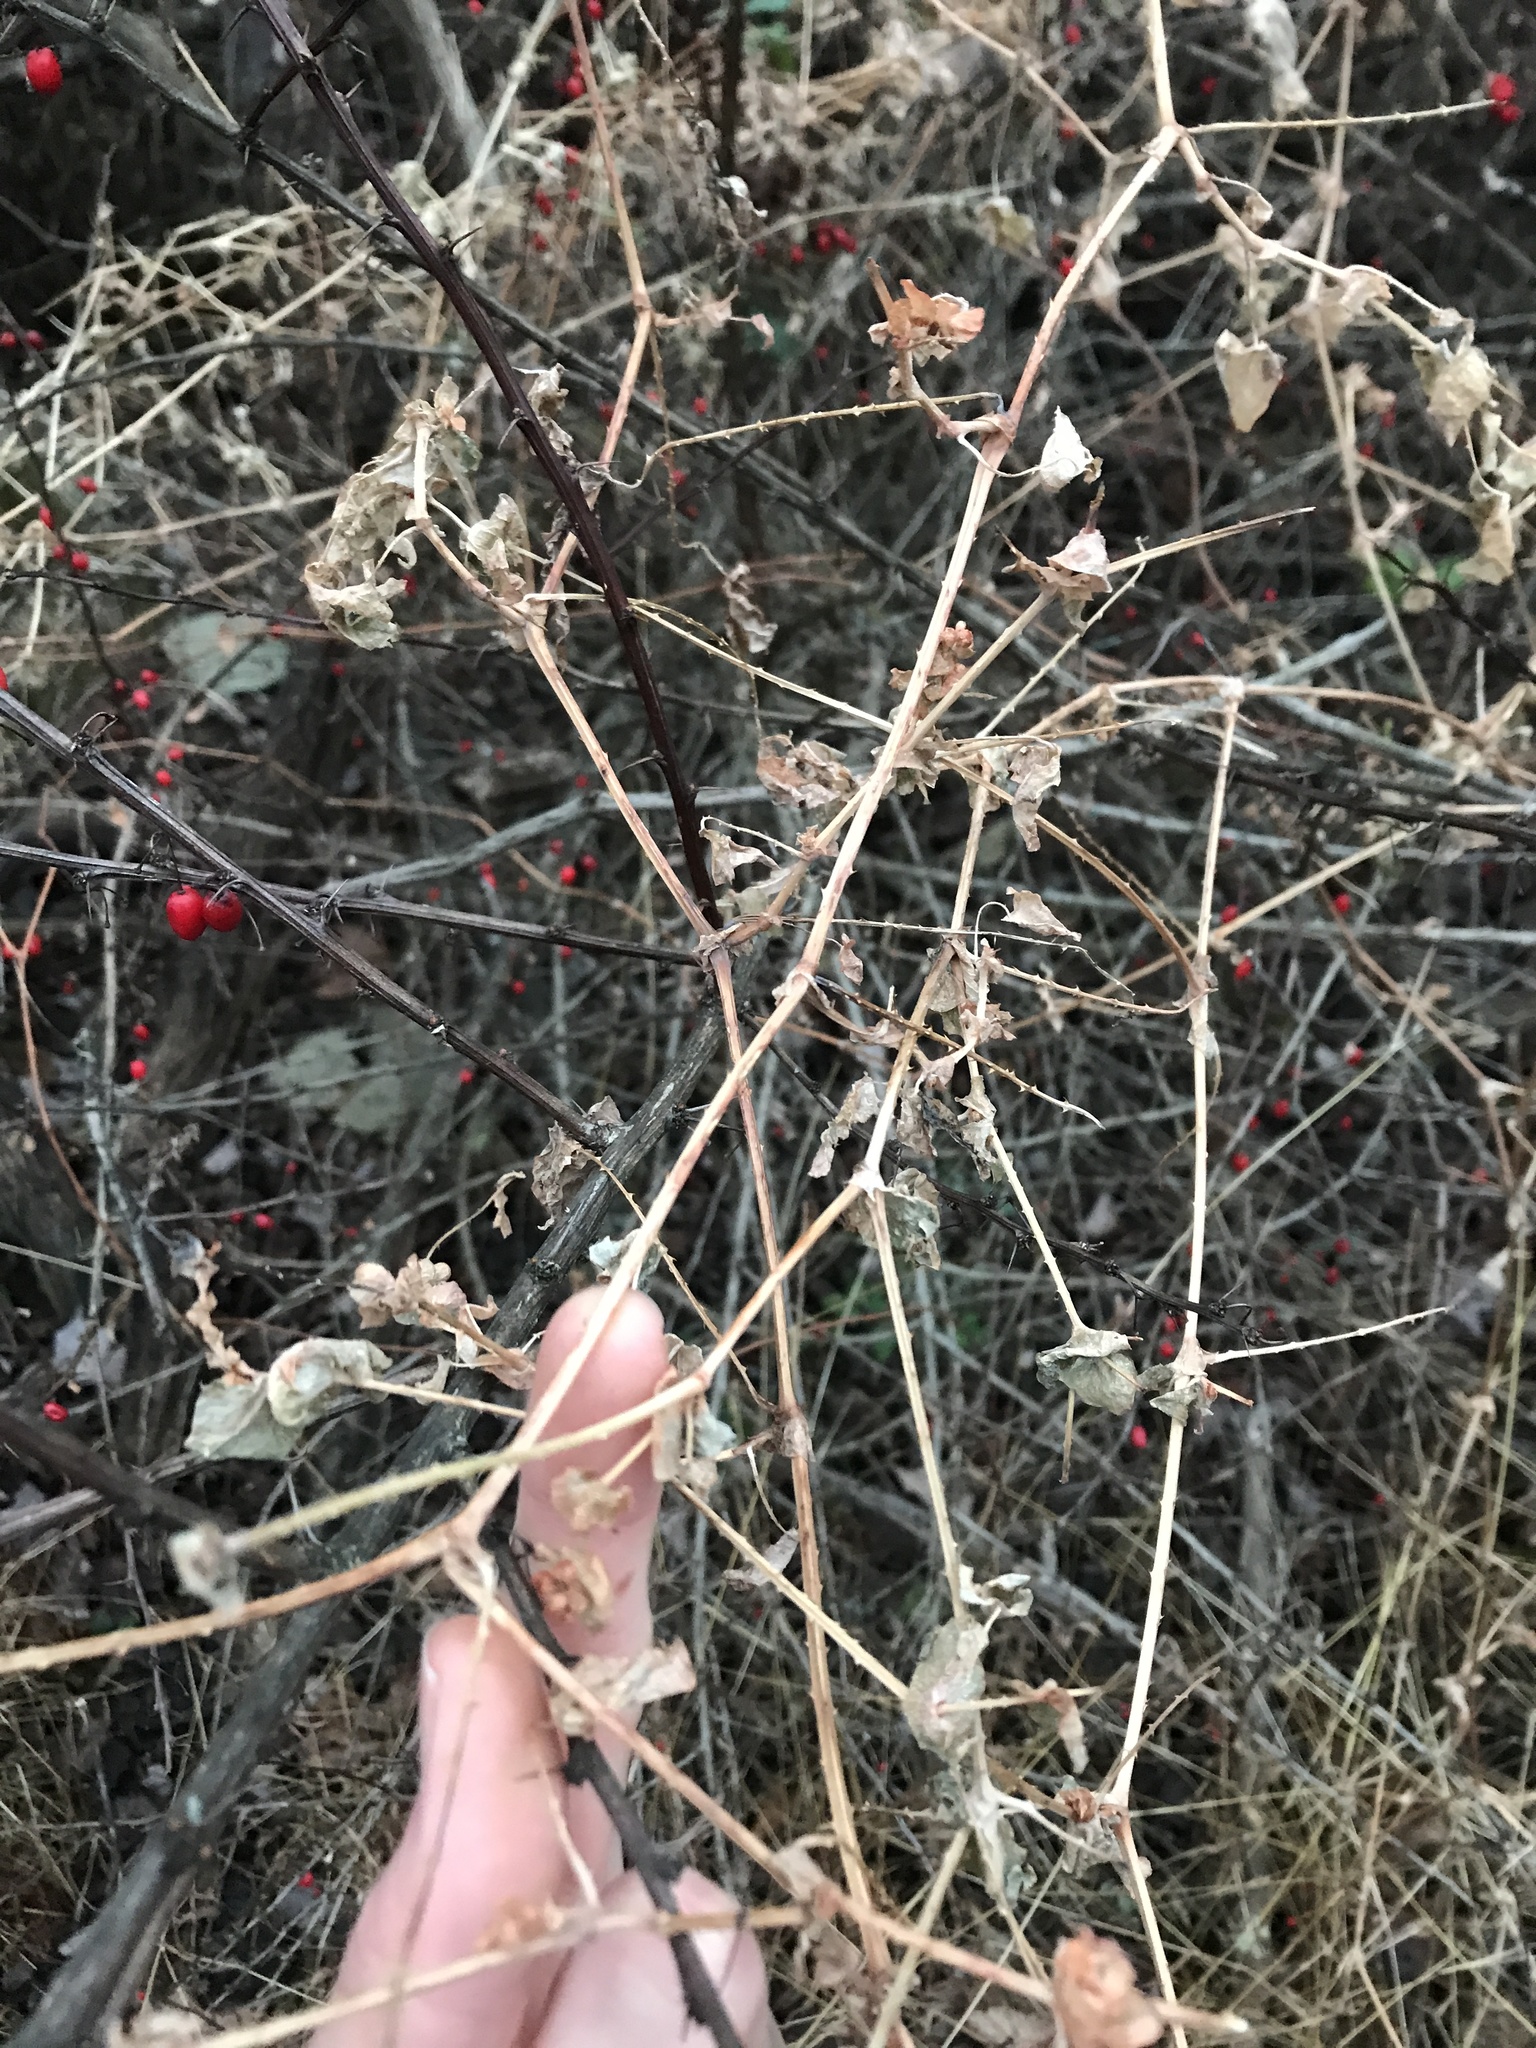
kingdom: Plantae
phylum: Tracheophyta
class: Magnoliopsida
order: Caryophyllales
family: Polygonaceae
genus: Persicaria
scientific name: Persicaria perfoliata
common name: Asiatic tearthumb
